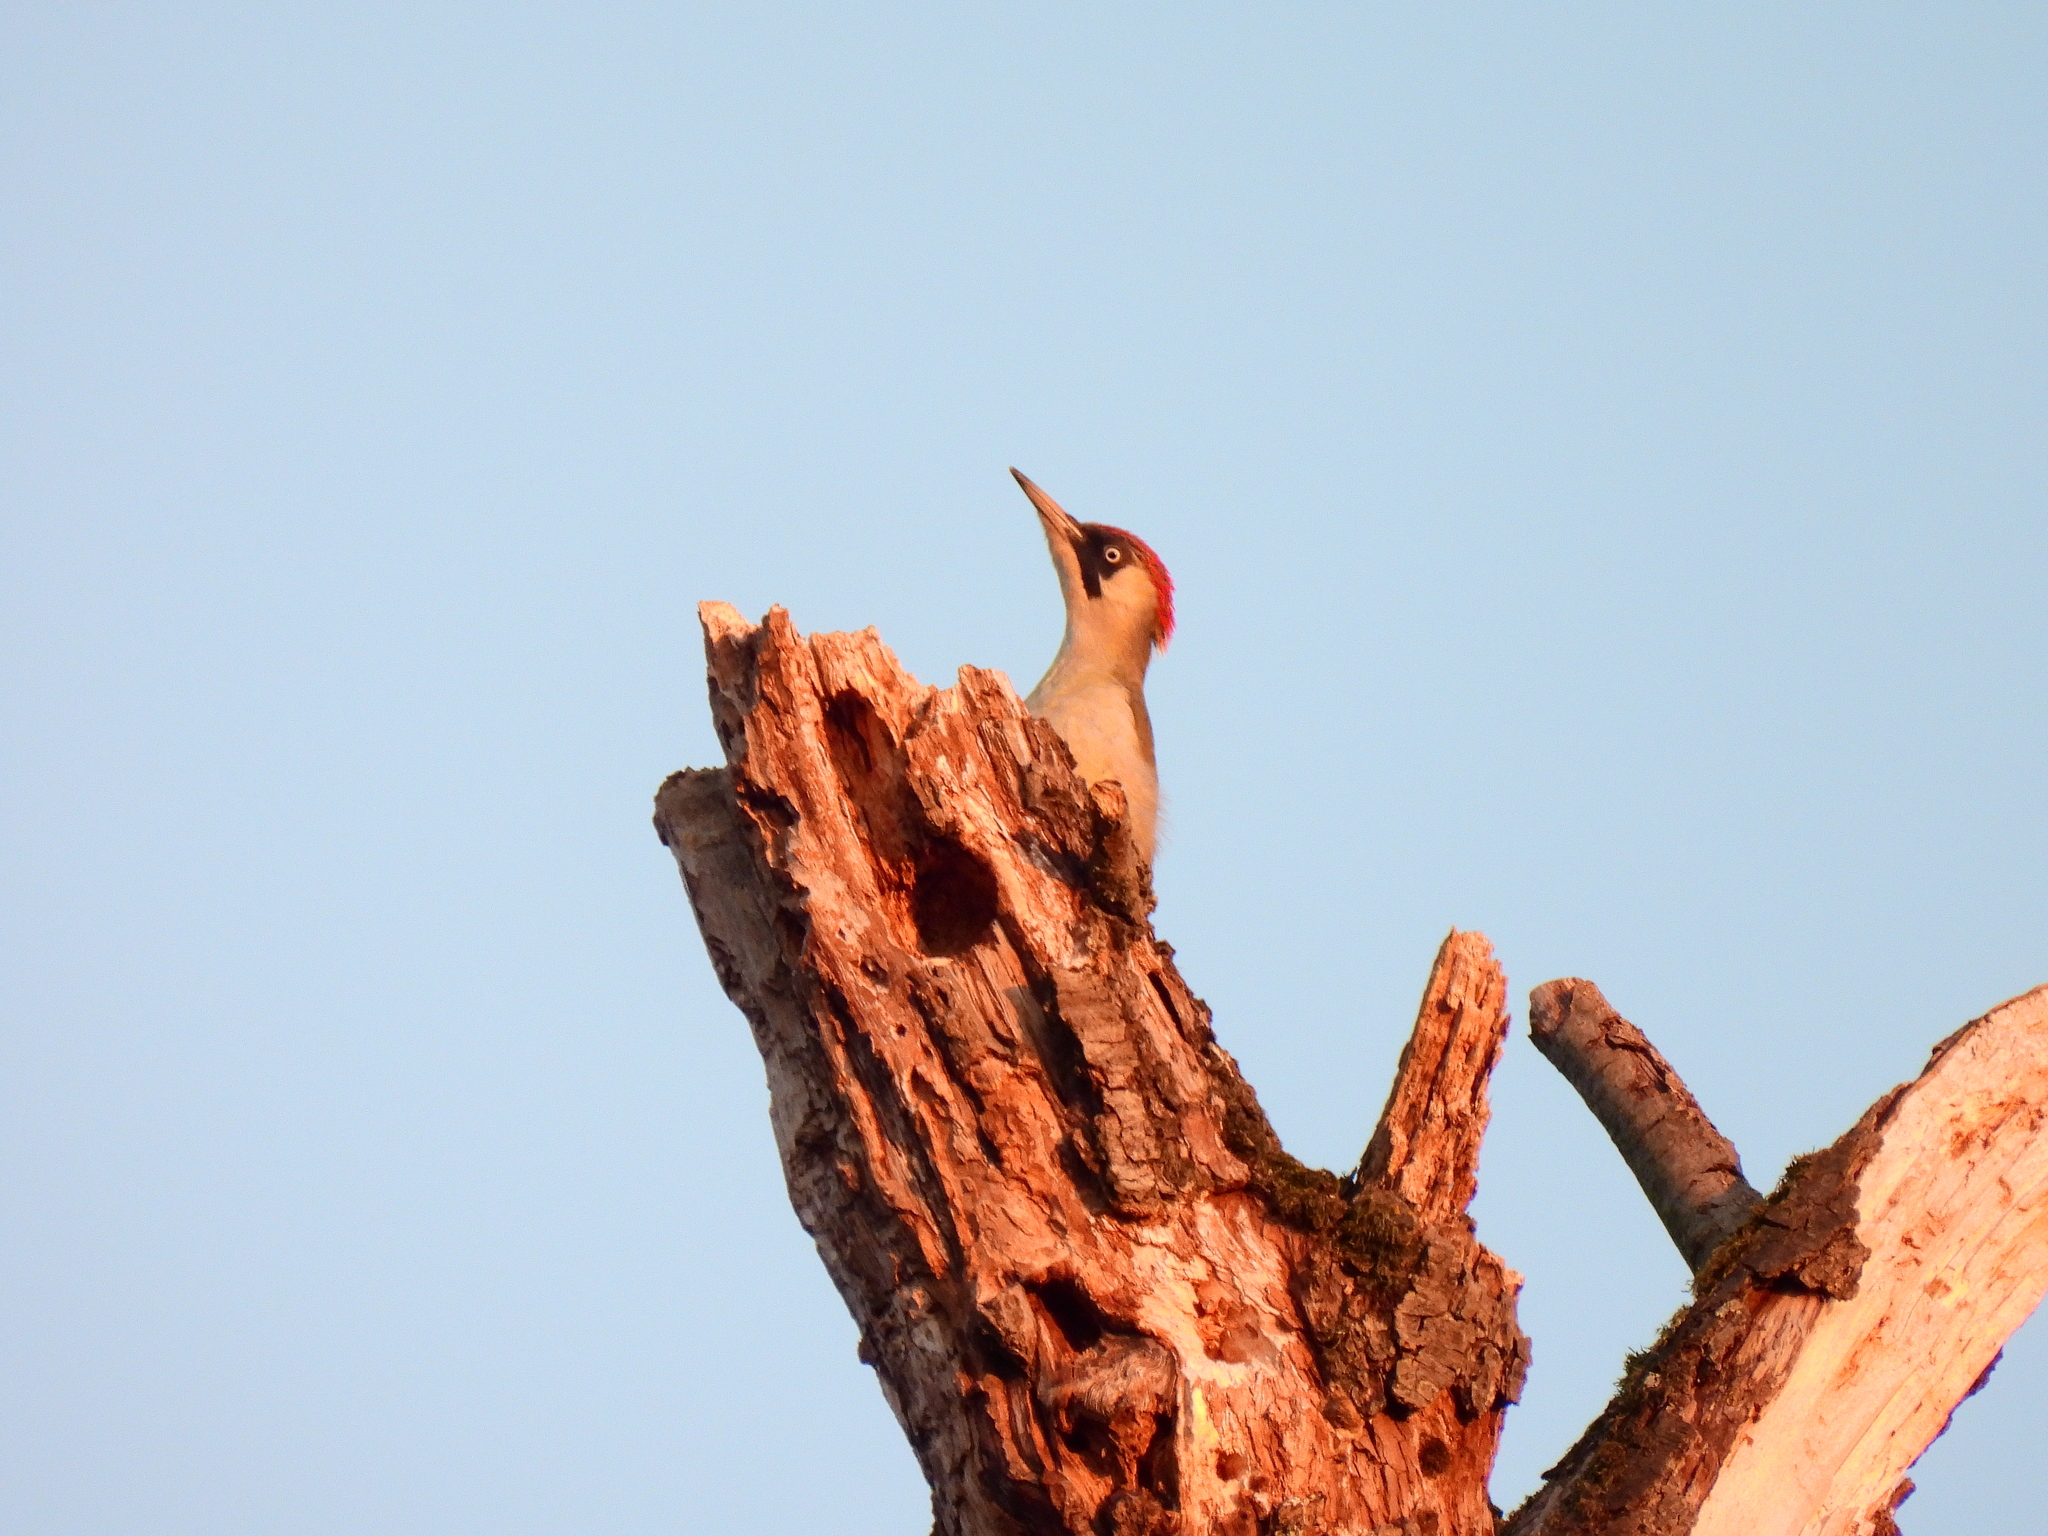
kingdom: Animalia
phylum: Chordata
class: Aves
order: Piciformes
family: Picidae
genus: Picus
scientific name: Picus viridis
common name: European green woodpecker
